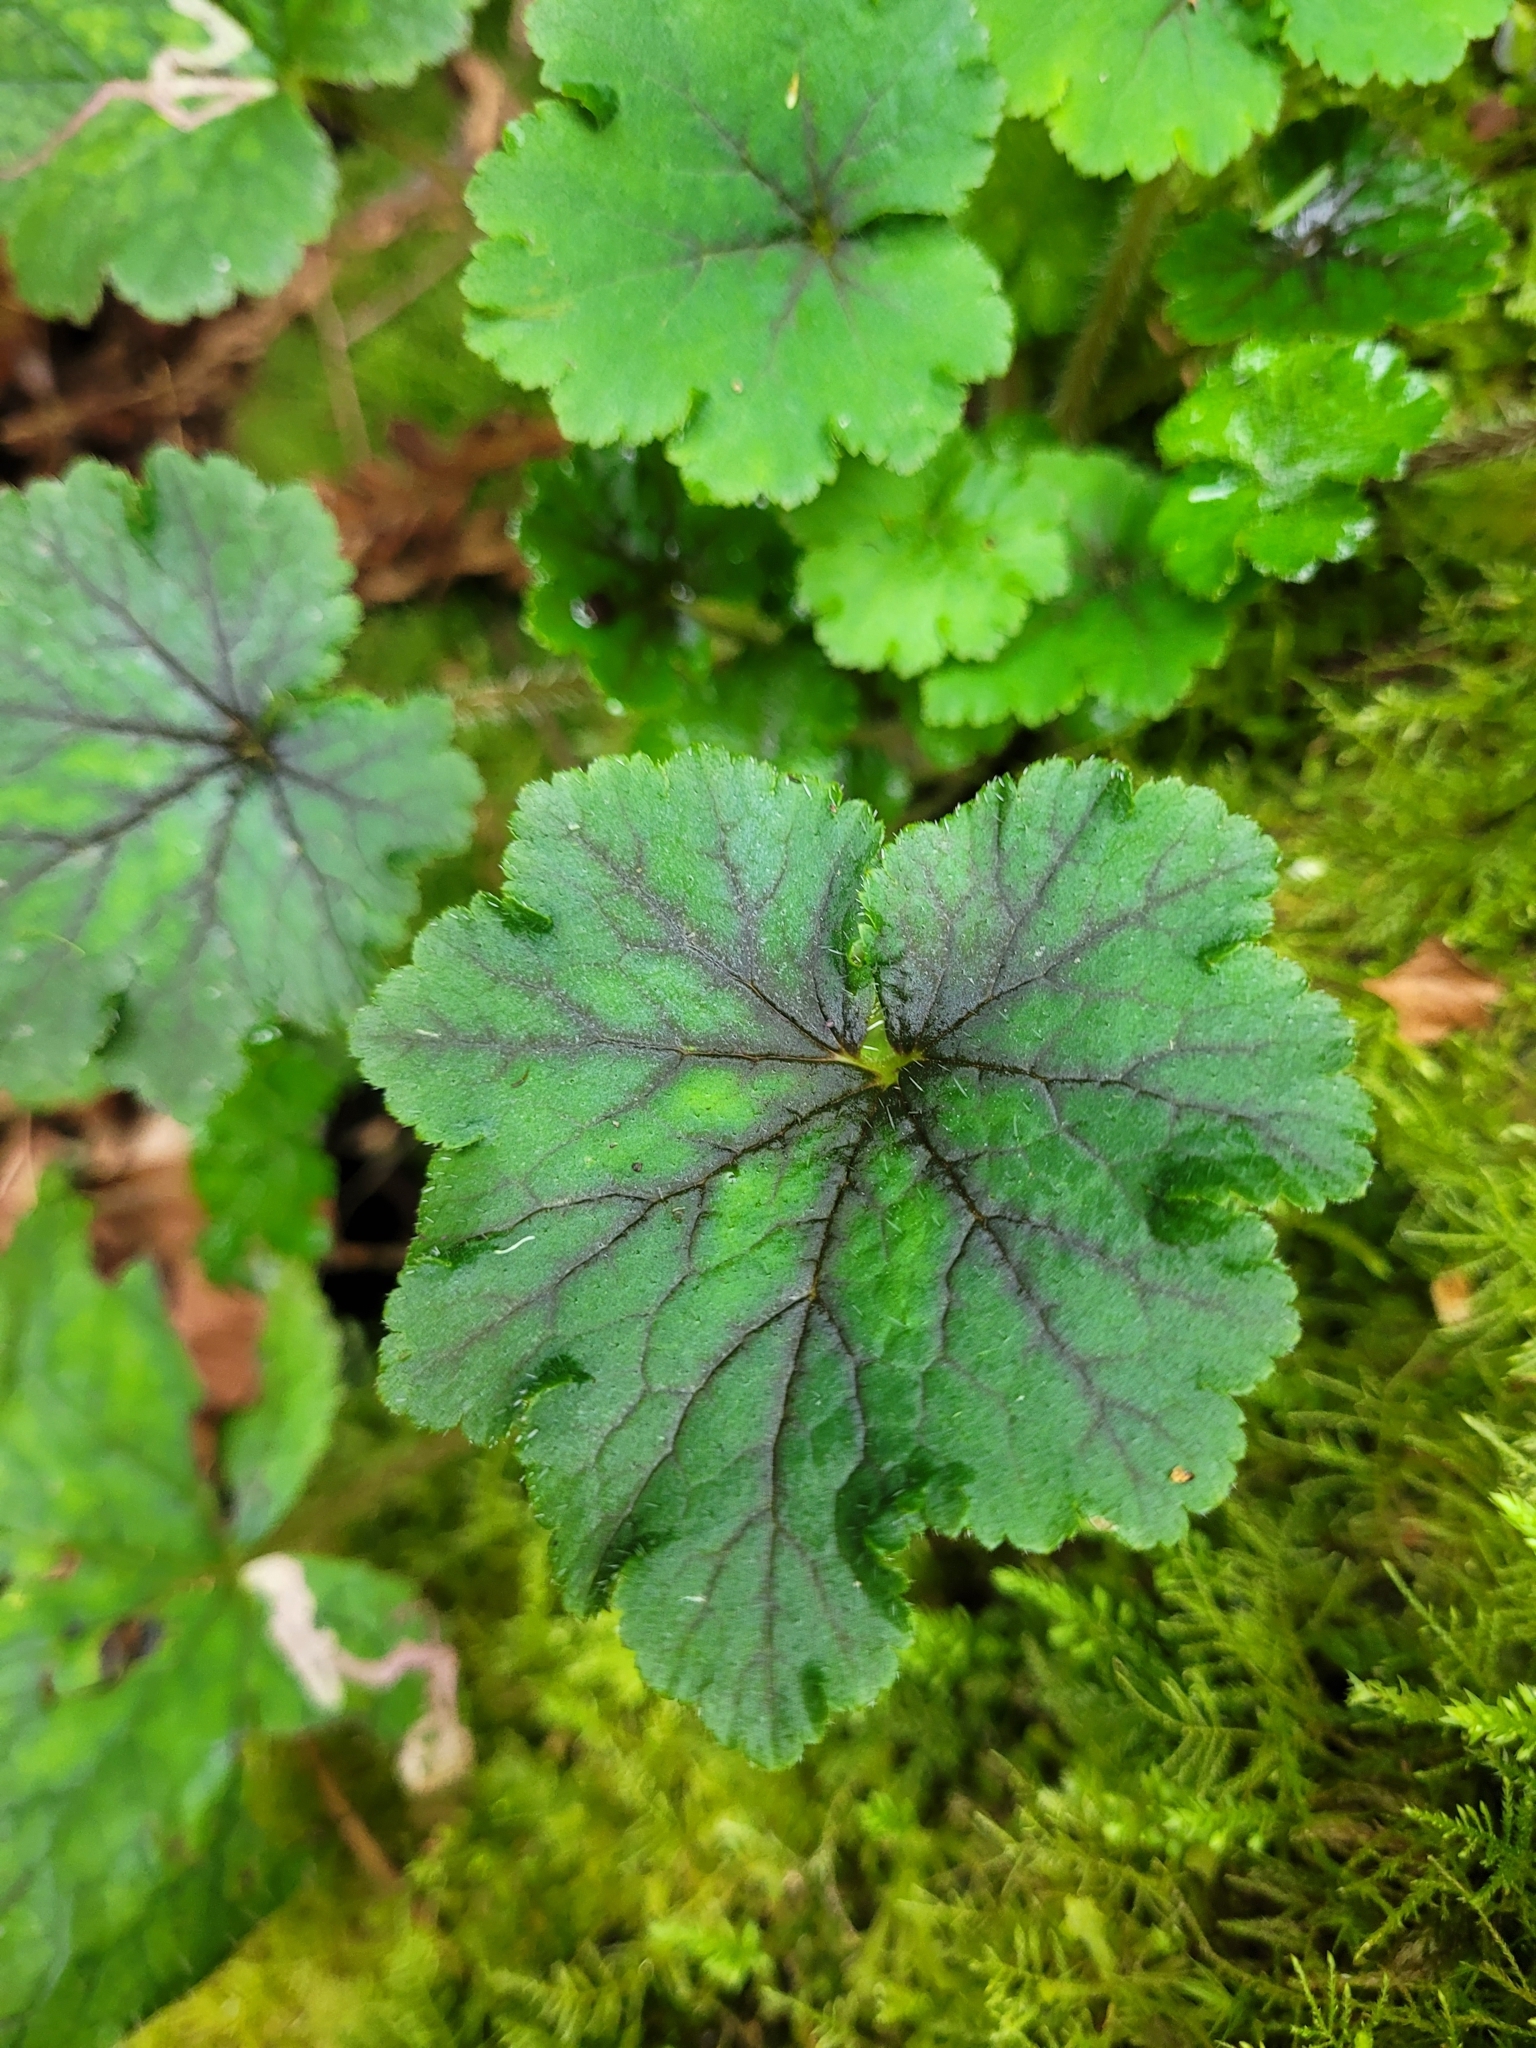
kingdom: Plantae
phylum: Tracheophyta
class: Magnoliopsida
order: Saxifragales
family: Saxifragaceae
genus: Tellima
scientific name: Tellima grandiflora
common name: Fringecups
